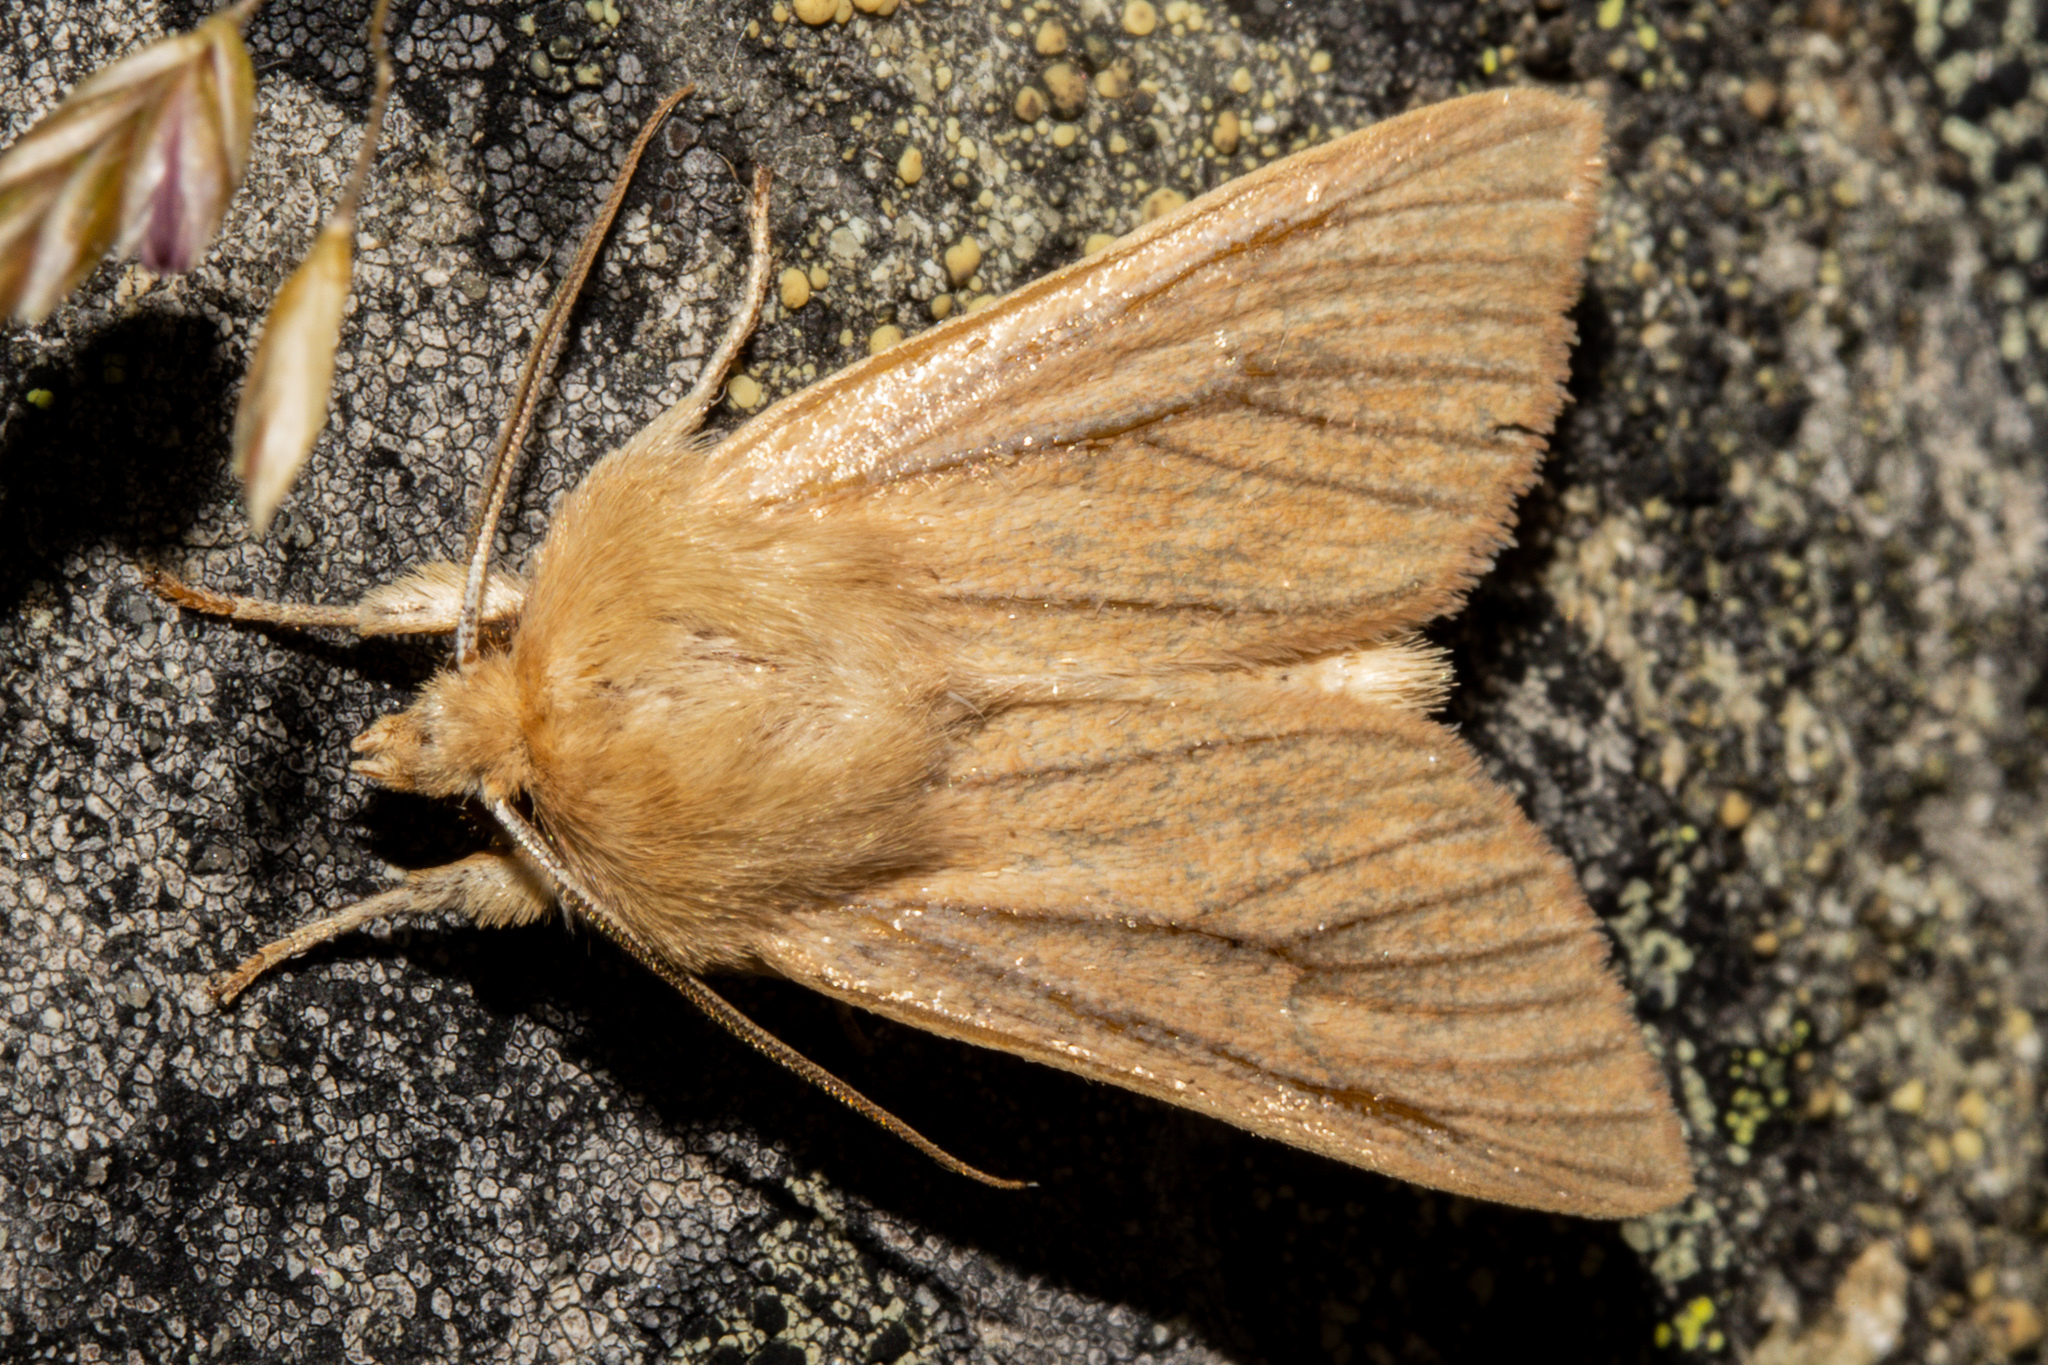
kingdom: Animalia
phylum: Arthropoda
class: Insecta
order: Lepidoptera
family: Noctuidae
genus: Ichneutica
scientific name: Ichneutica arotis
